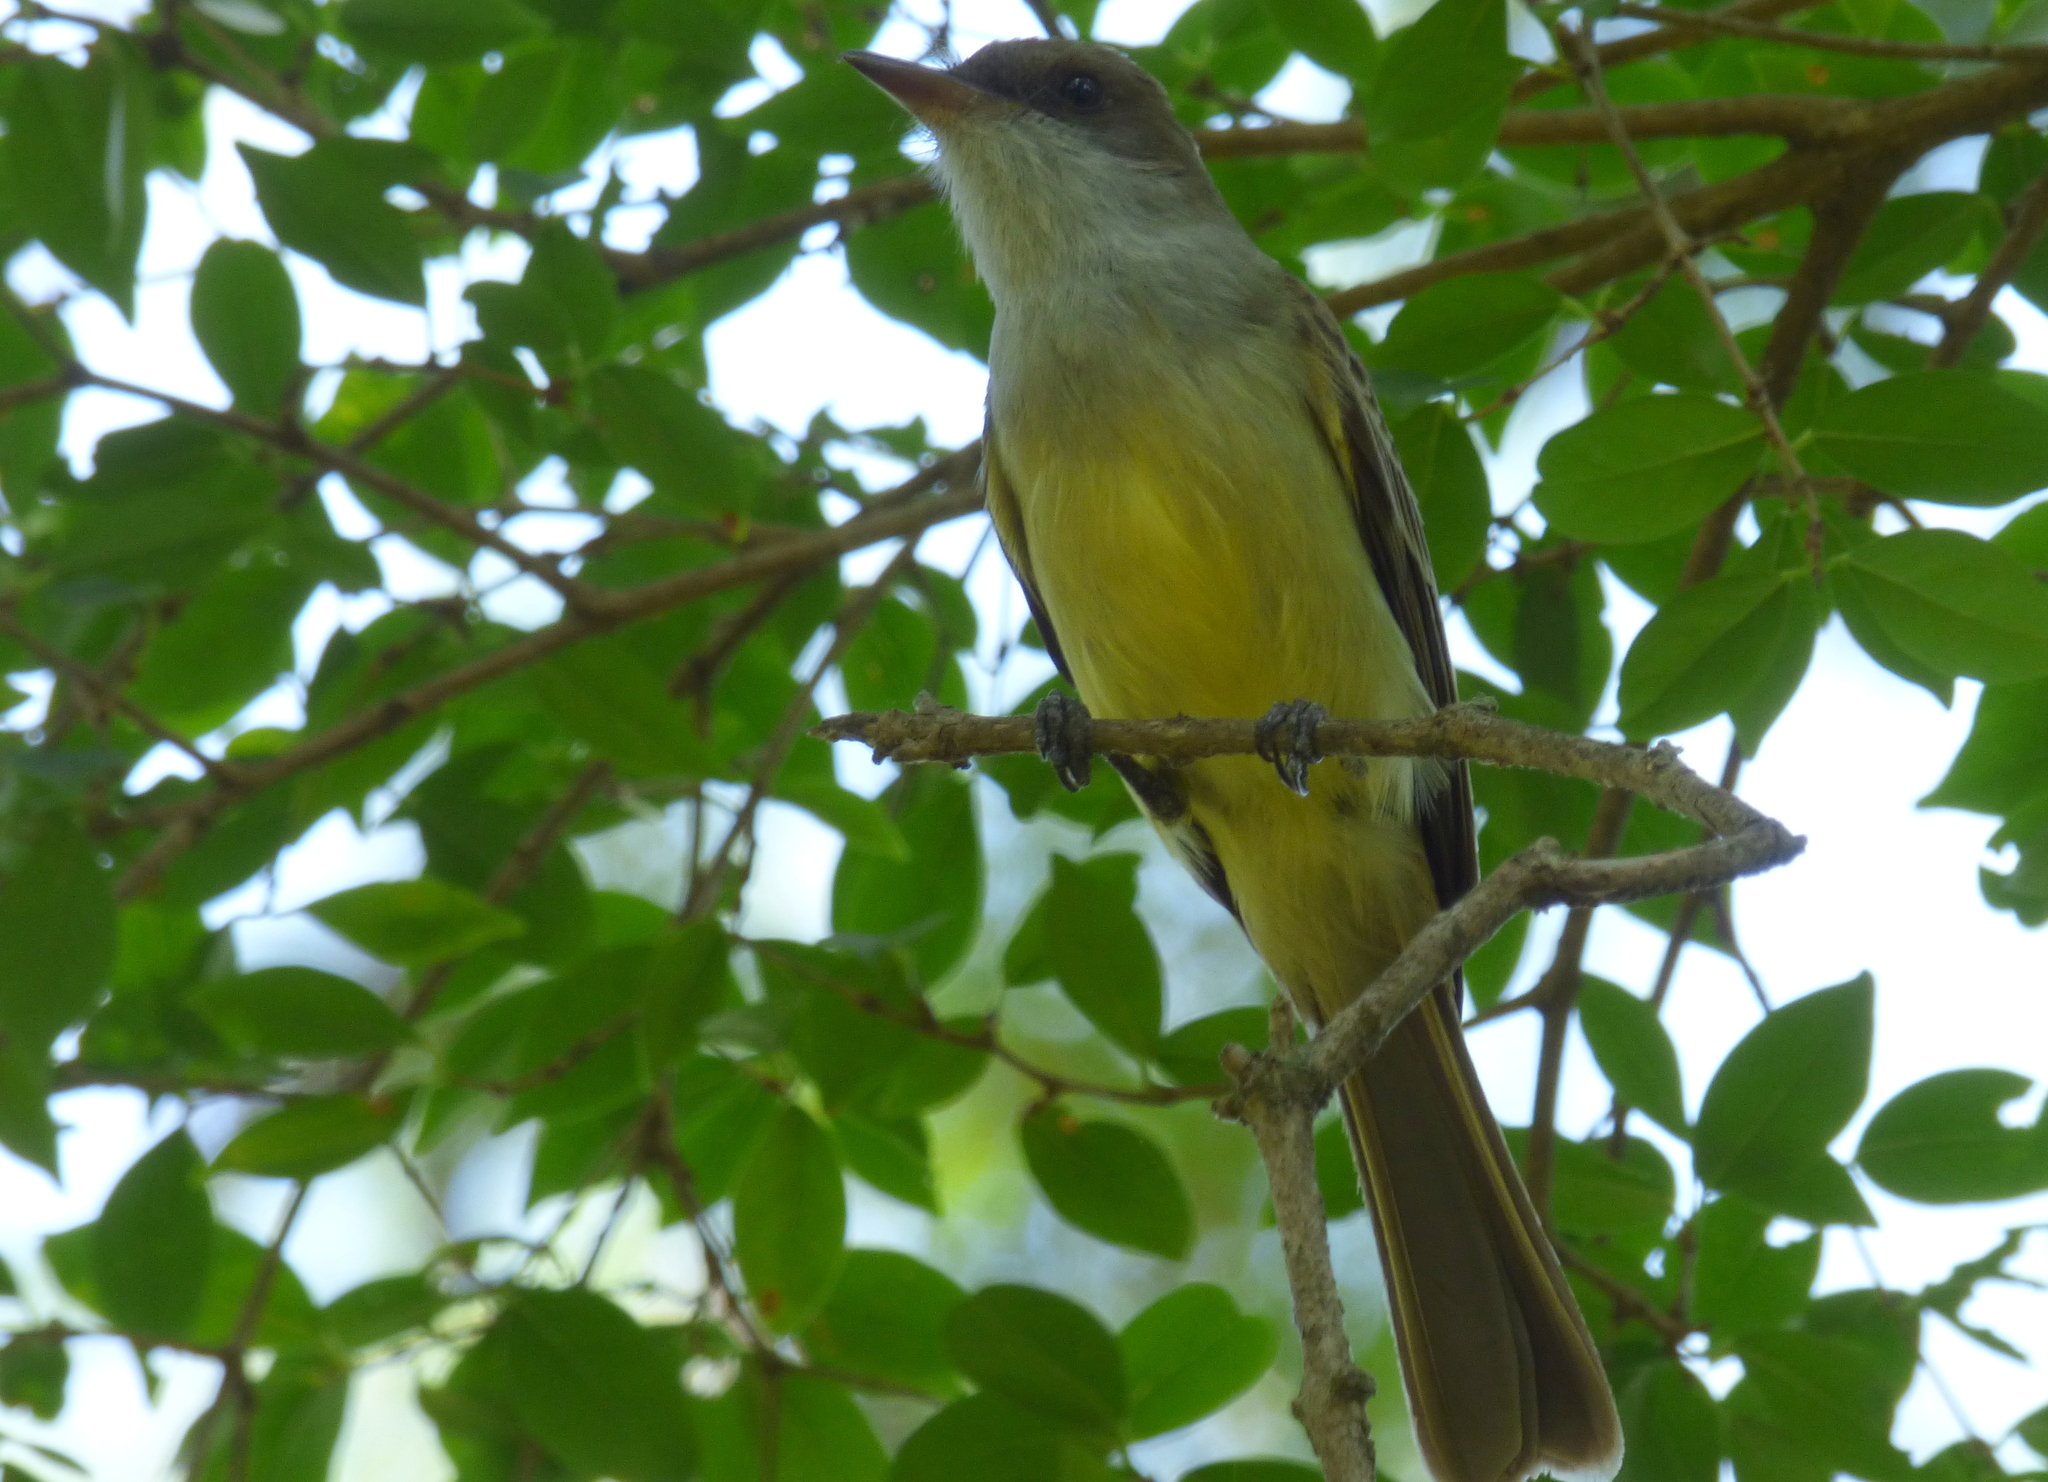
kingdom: Animalia
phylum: Chordata
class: Aves
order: Passeriformes
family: Tyrannidae
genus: Myiarchus
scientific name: Myiarchus swainsoni
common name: Swainson's flycatcher
